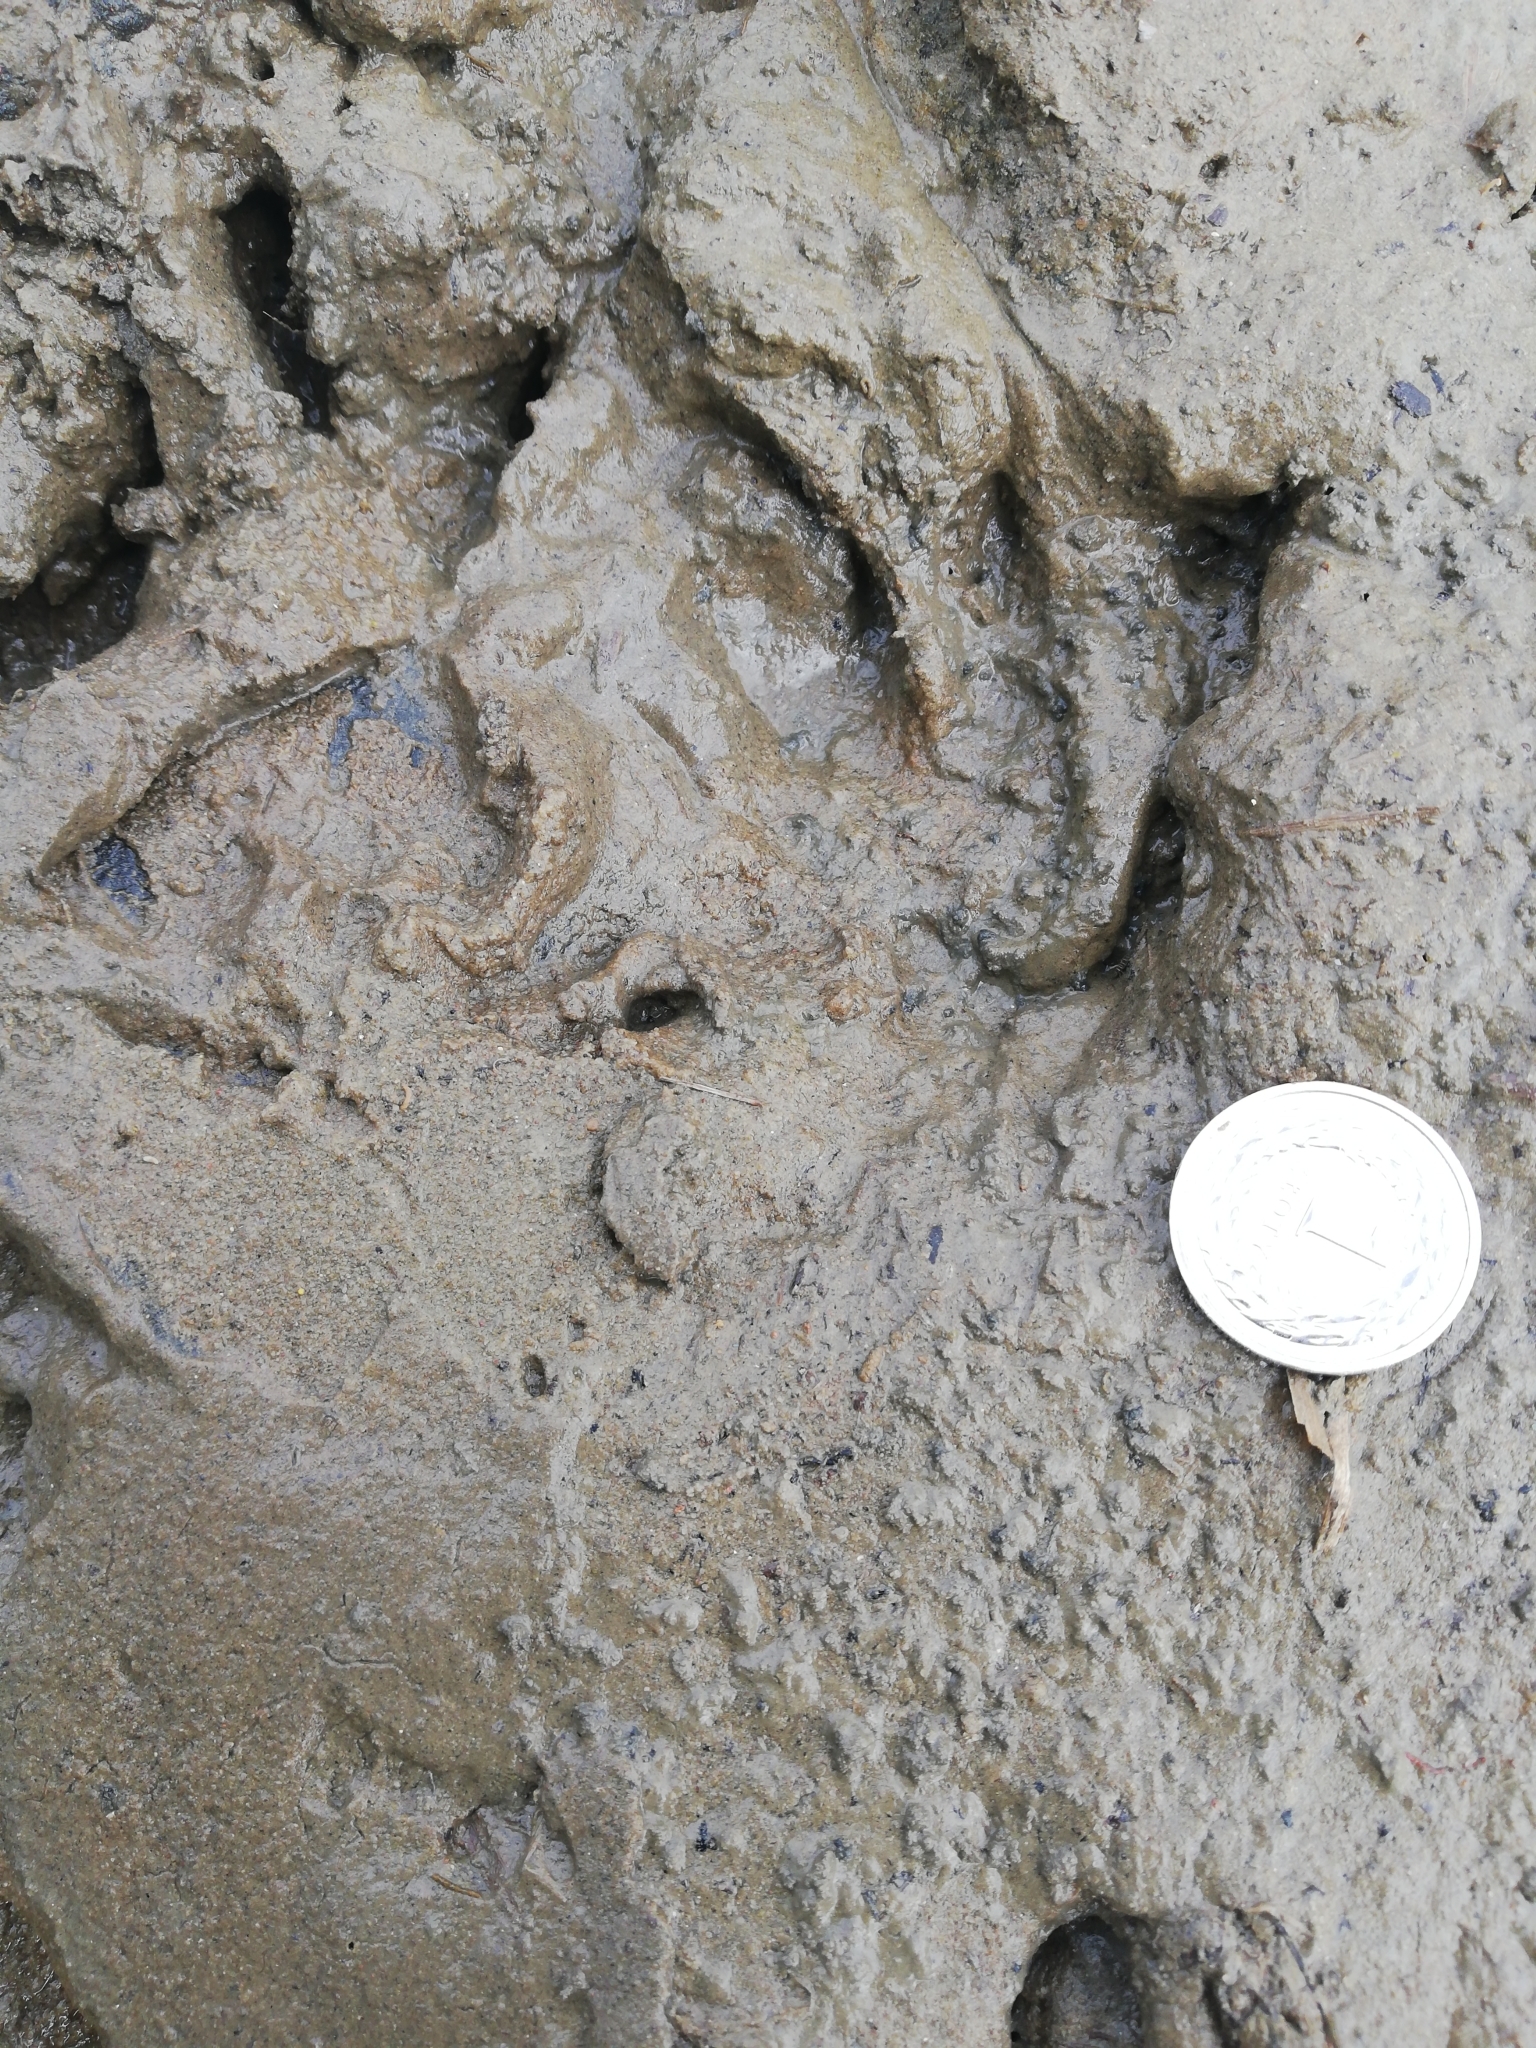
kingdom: Animalia
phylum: Chordata
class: Mammalia
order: Rodentia
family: Castoridae
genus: Castor
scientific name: Castor fiber
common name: Eurasian beaver
